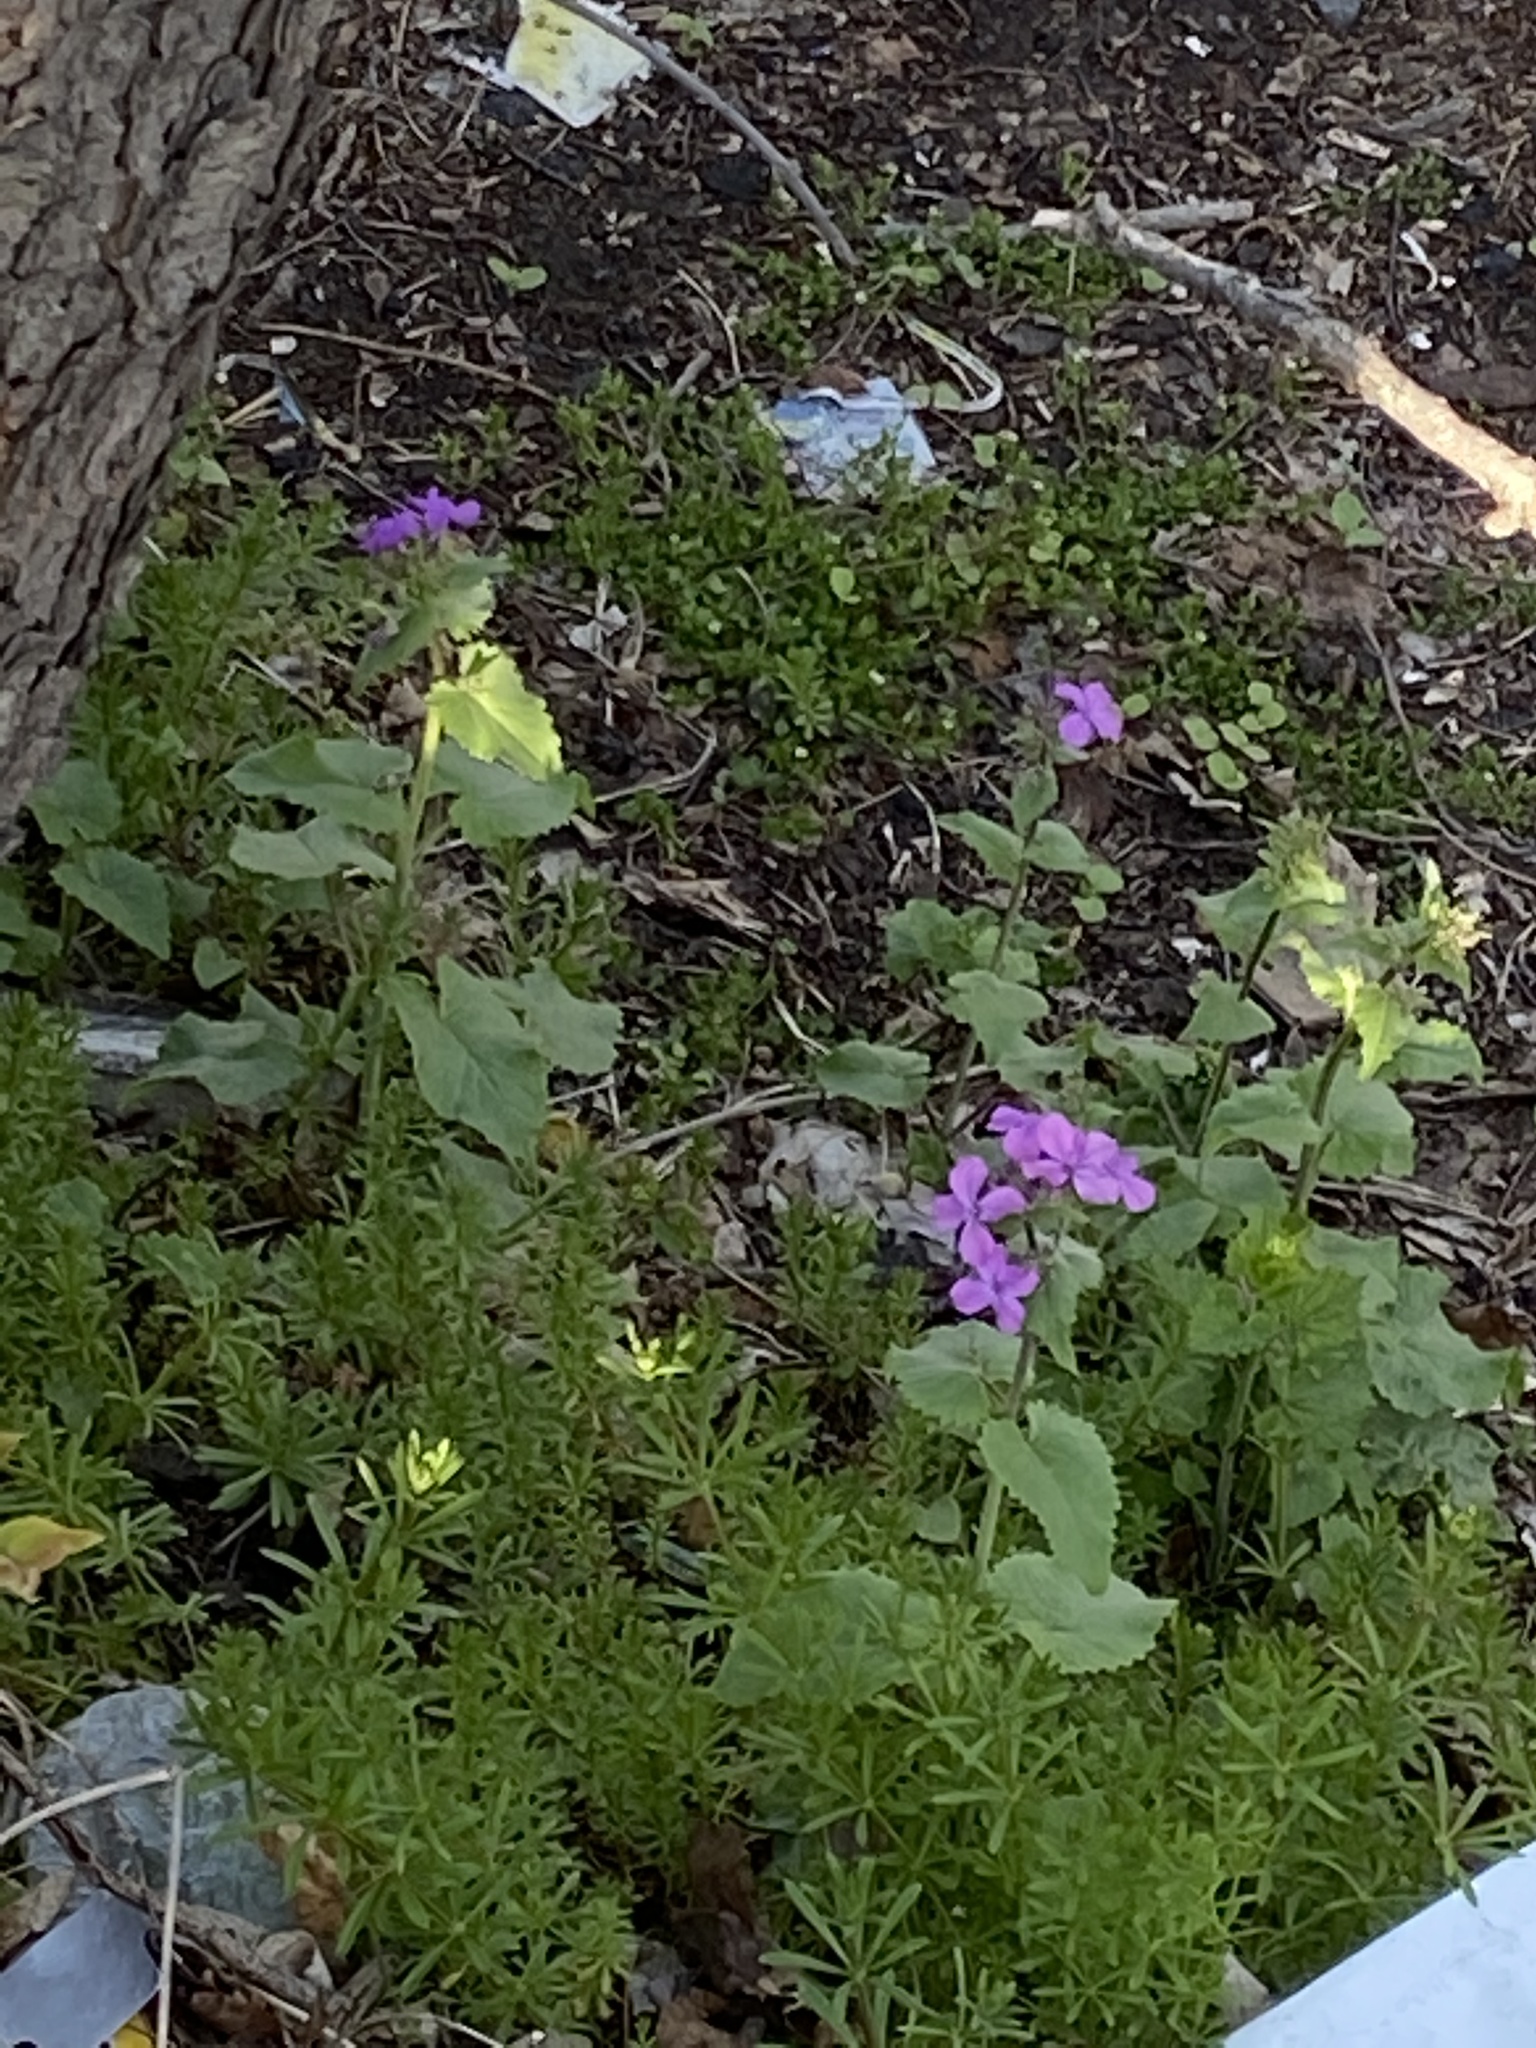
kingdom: Plantae
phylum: Tracheophyta
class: Magnoliopsida
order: Brassicales
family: Brassicaceae
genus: Lunaria
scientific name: Lunaria annua
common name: Honesty
